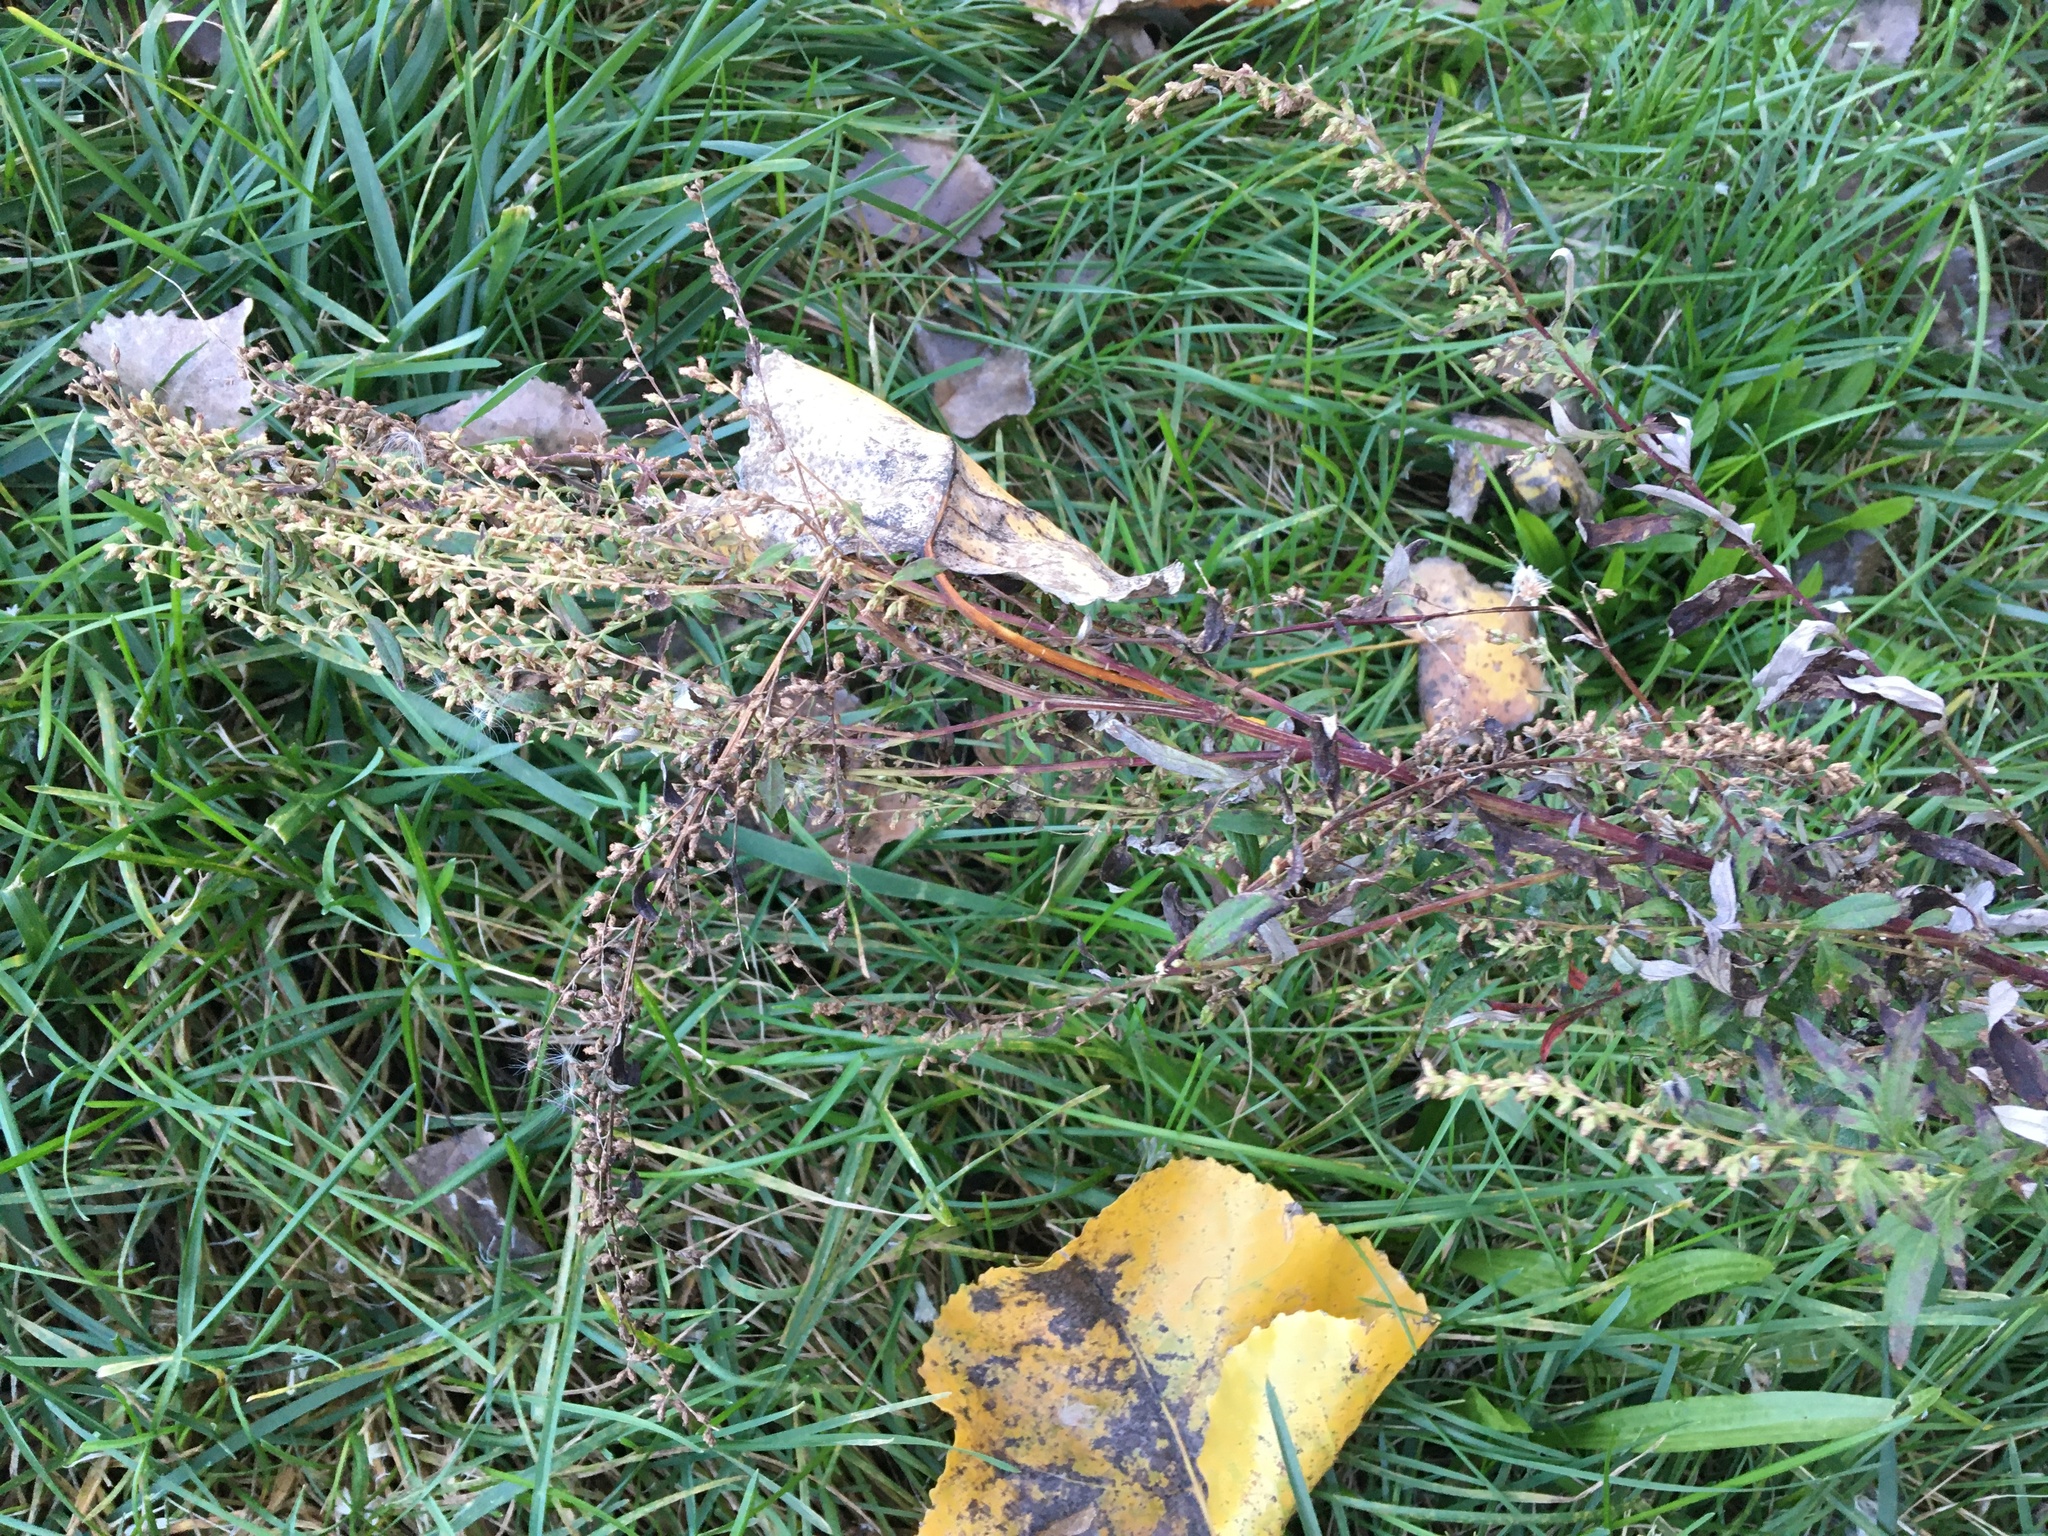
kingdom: Plantae
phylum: Tracheophyta
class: Magnoliopsida
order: Asterales
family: Asteraceae
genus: Artemisia
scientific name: Artemisia vulgaris
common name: Mugwort
